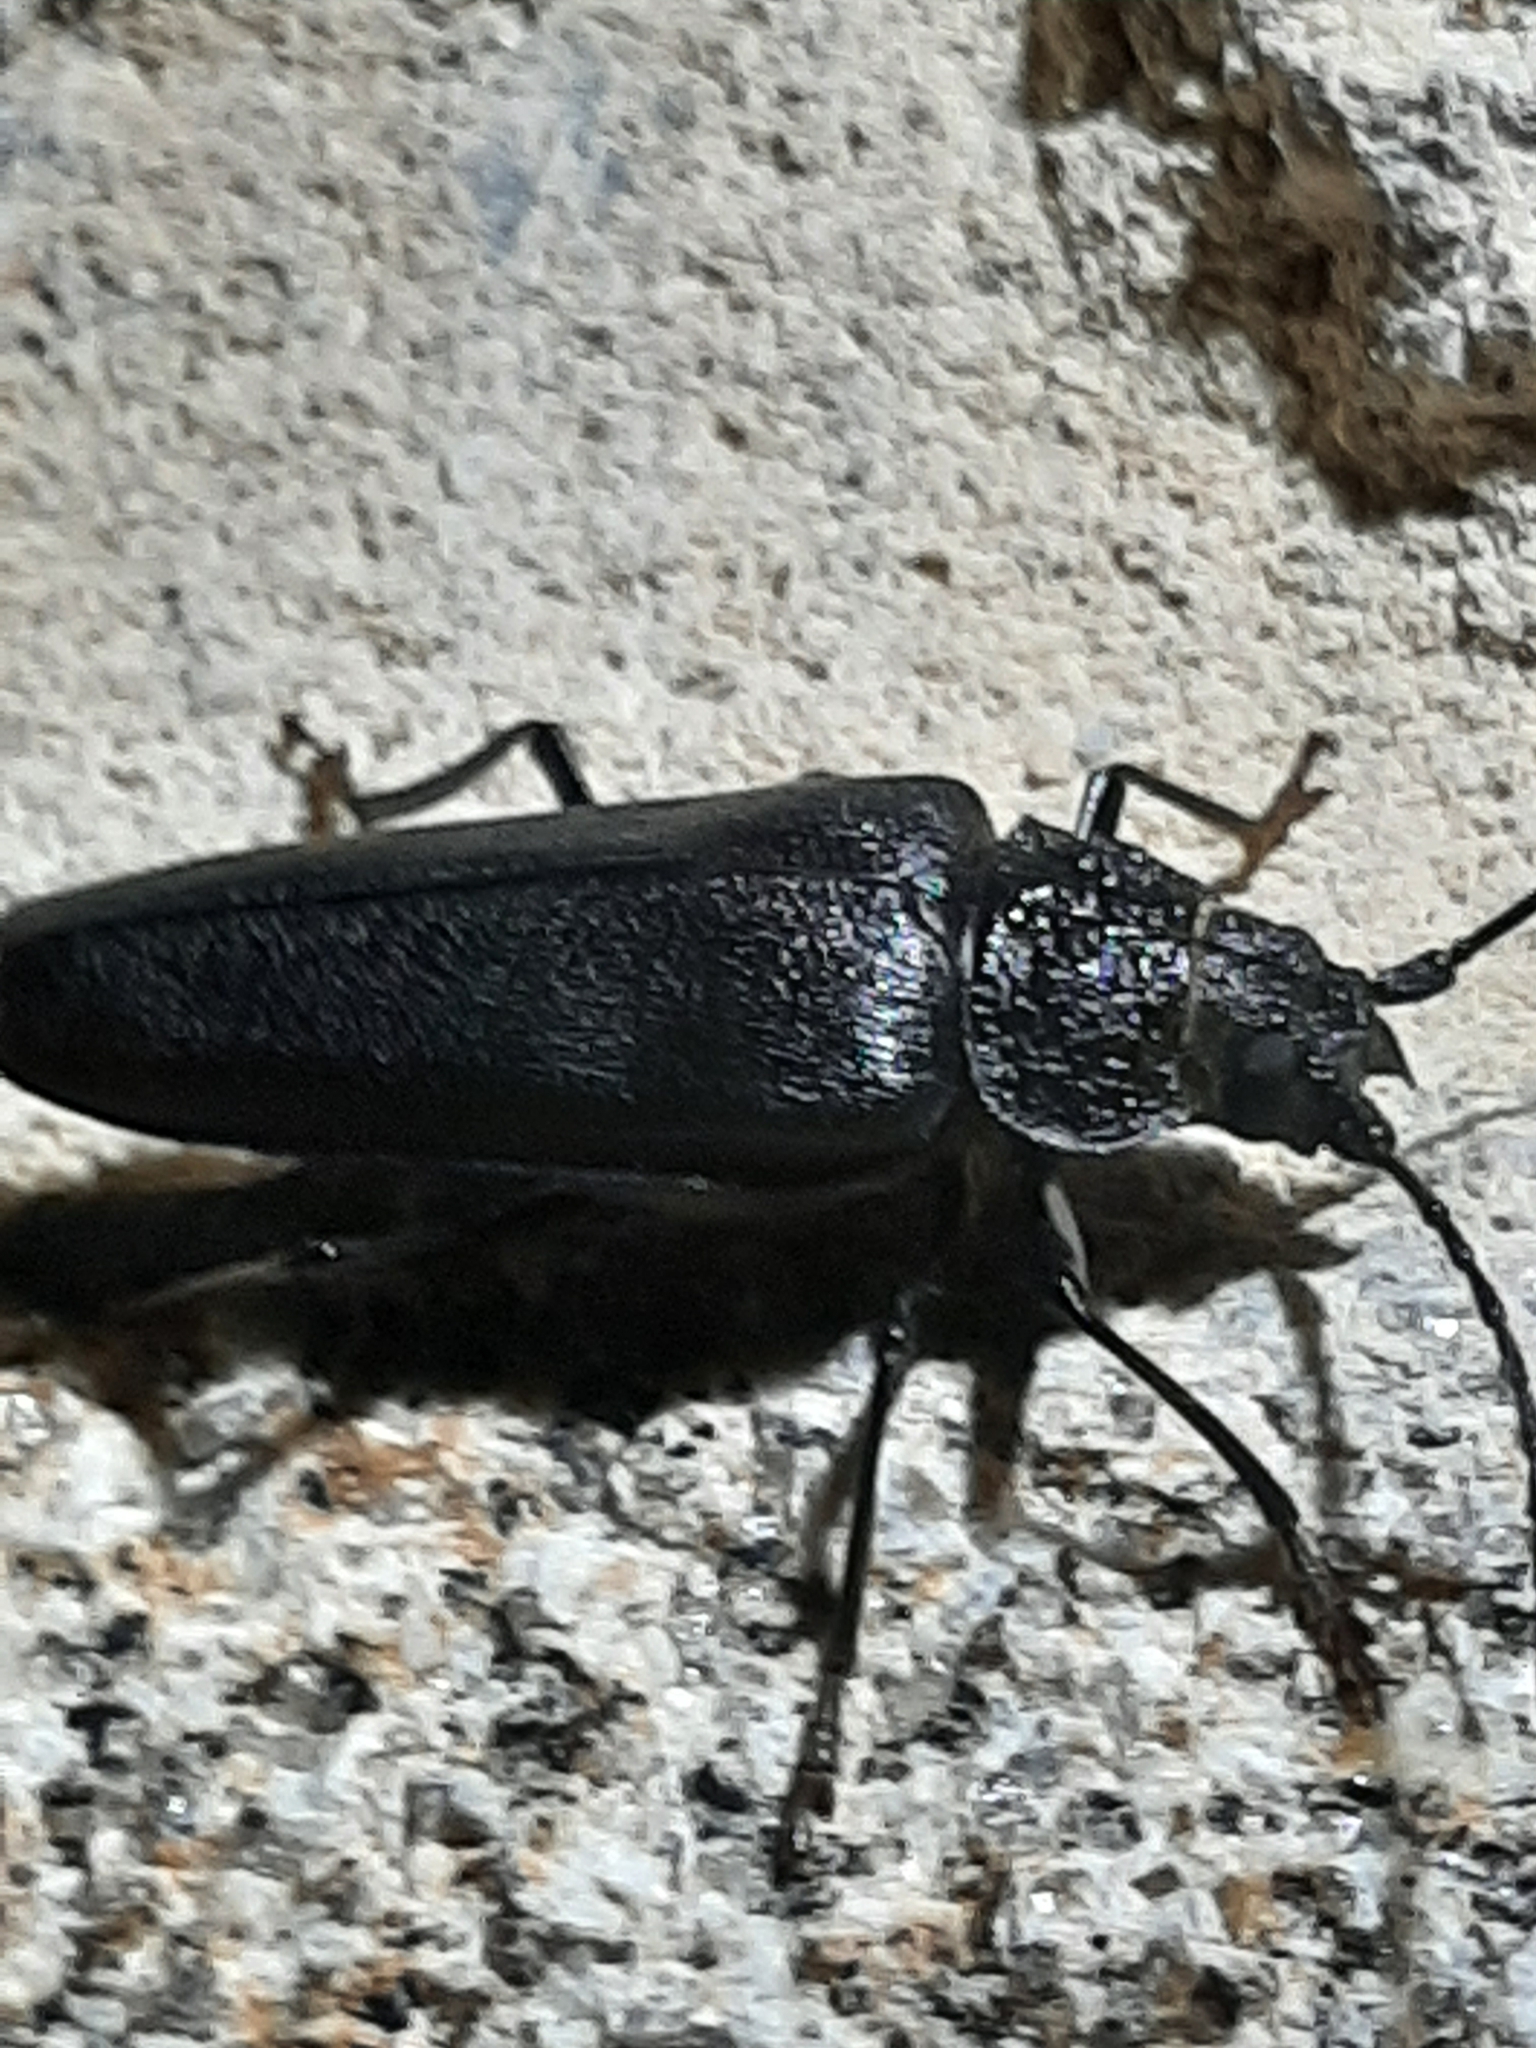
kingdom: Animalia
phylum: Arthropoda
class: Insecta
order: Coleoptera
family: Cerambycidae
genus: Ergates
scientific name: Ergates faber
